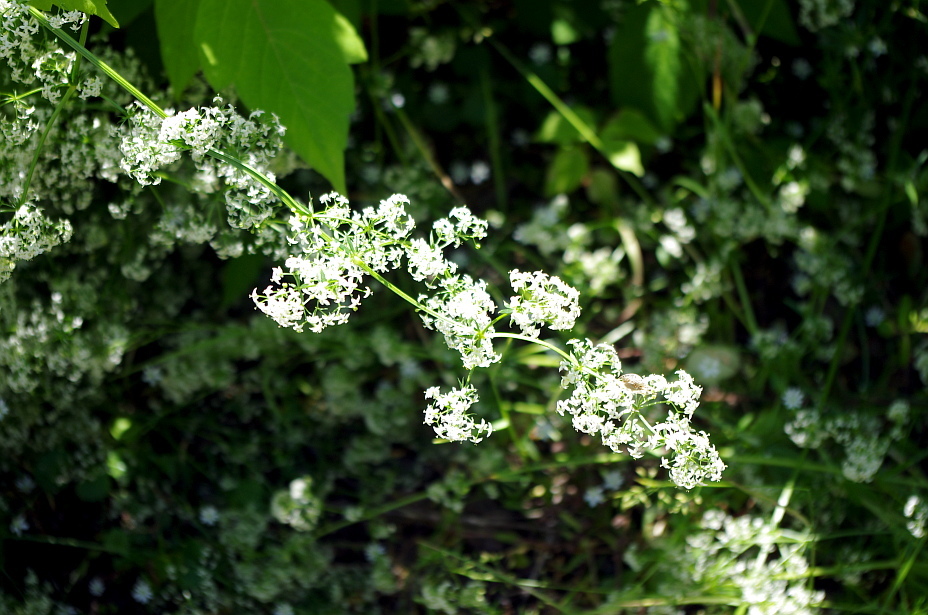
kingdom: Plantae
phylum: Tracheophyta
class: Magnoliopsida
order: Gentianales
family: Rubiaceae
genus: Galium
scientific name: Galium mollugo
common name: Hedge bedstraw
